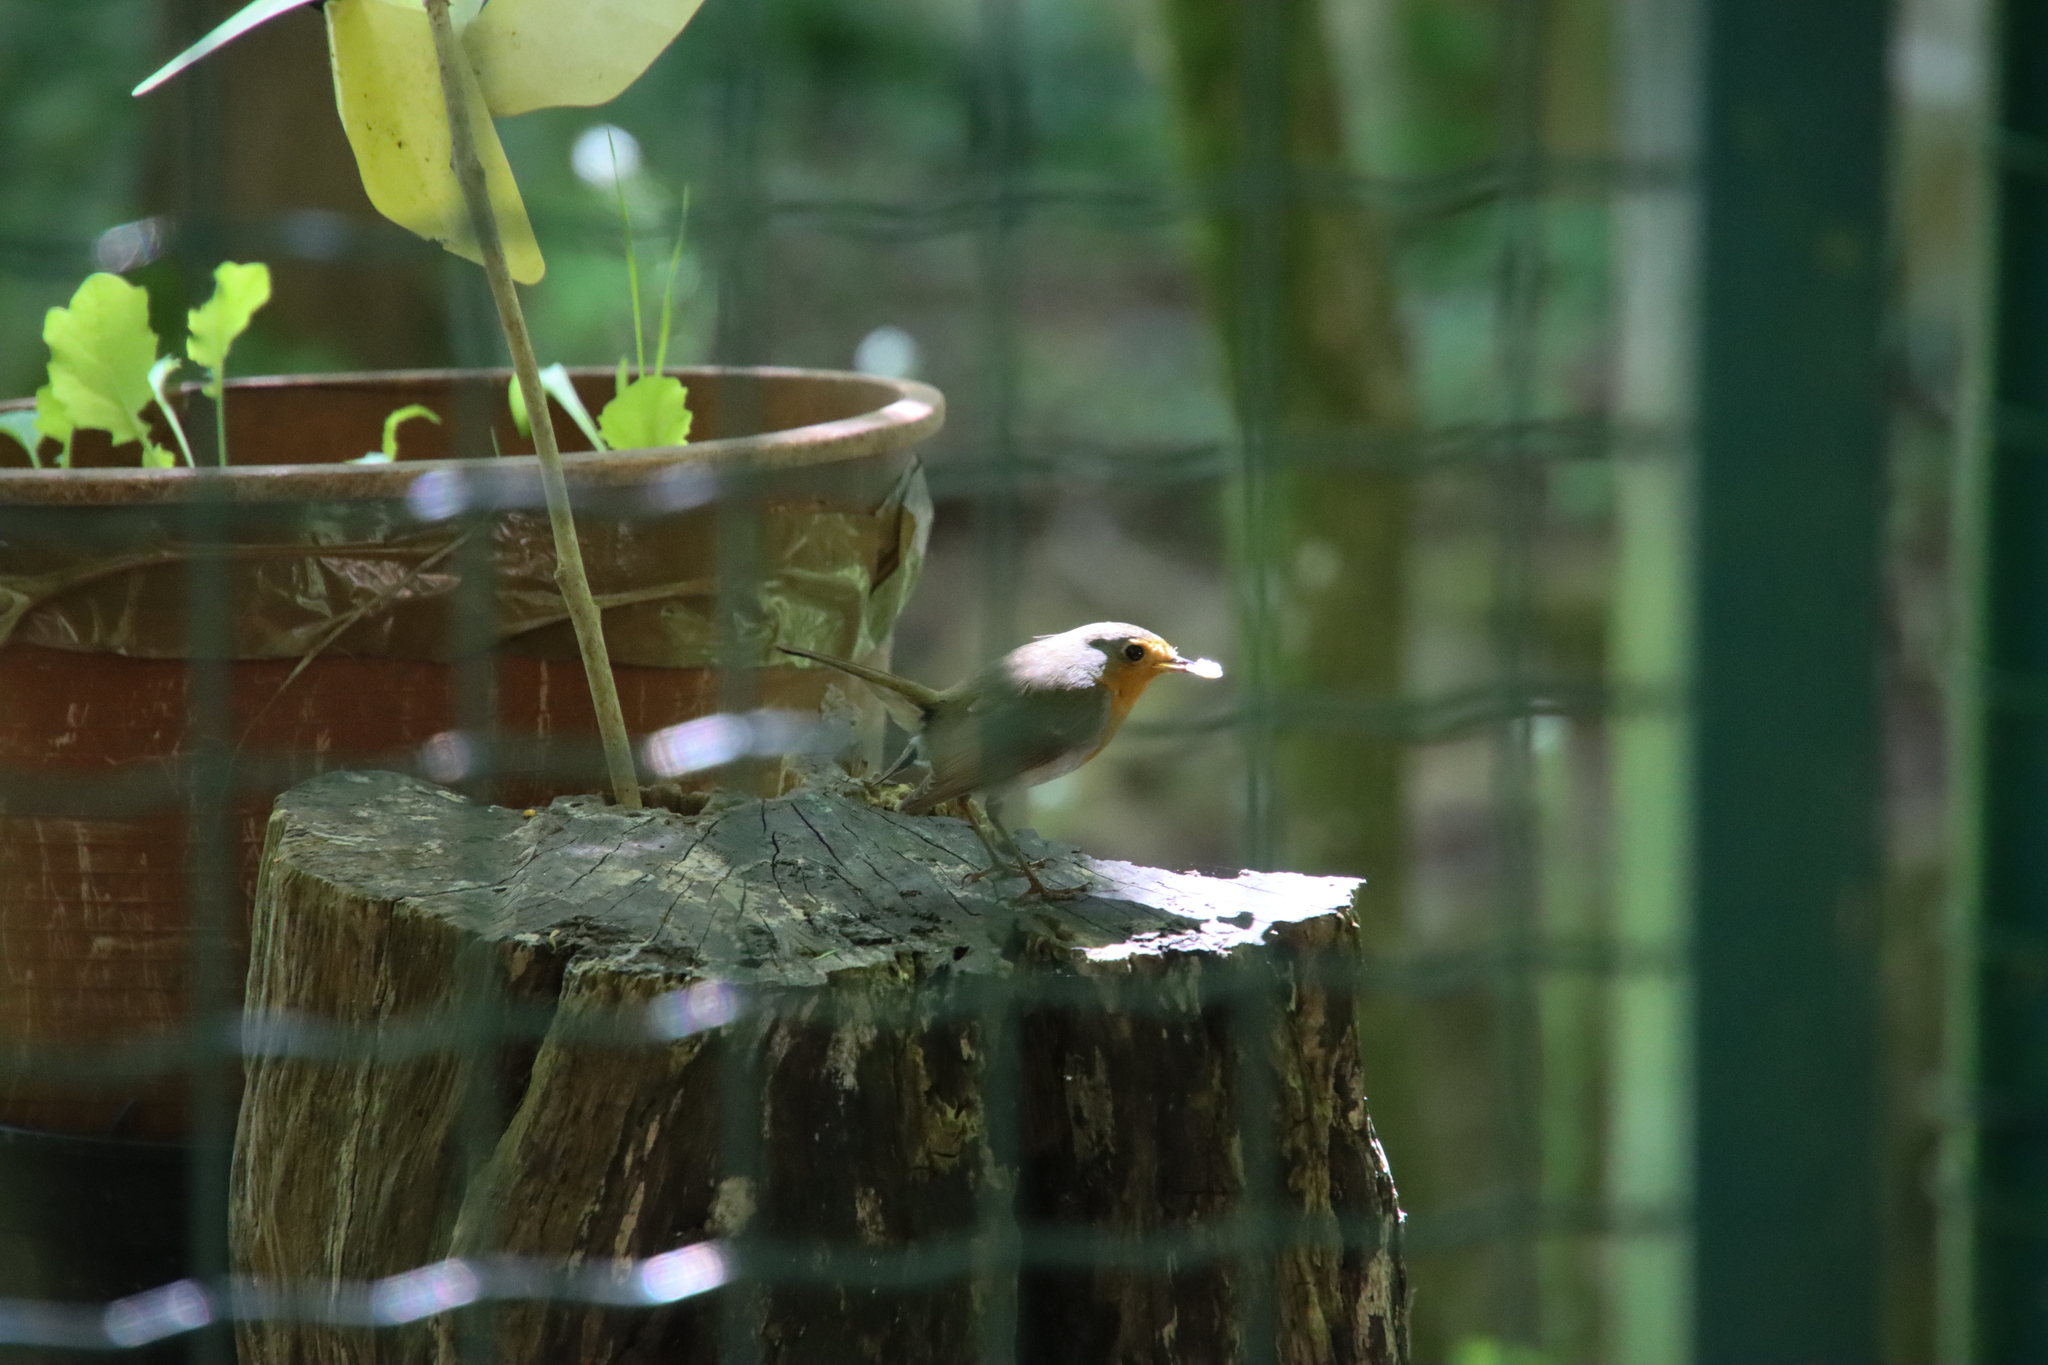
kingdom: Animalia
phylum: Chordata
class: Aves
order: Passeriformes
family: Muscicapidae
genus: Erithacus
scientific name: Erithacus rubecula
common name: European robin
